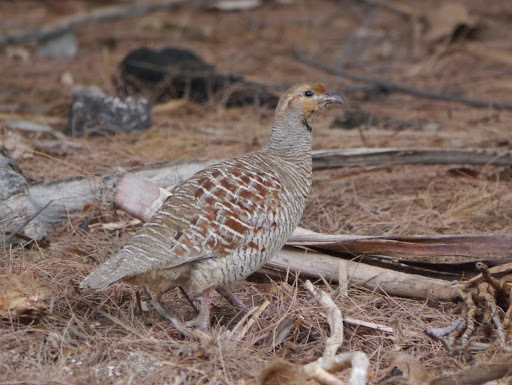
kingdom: Animalia
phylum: Chordata
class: Aves
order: Galliformes
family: Phasianidae
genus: Ortygornis
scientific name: Ortygornis pondicerianus
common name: Grey francolin
